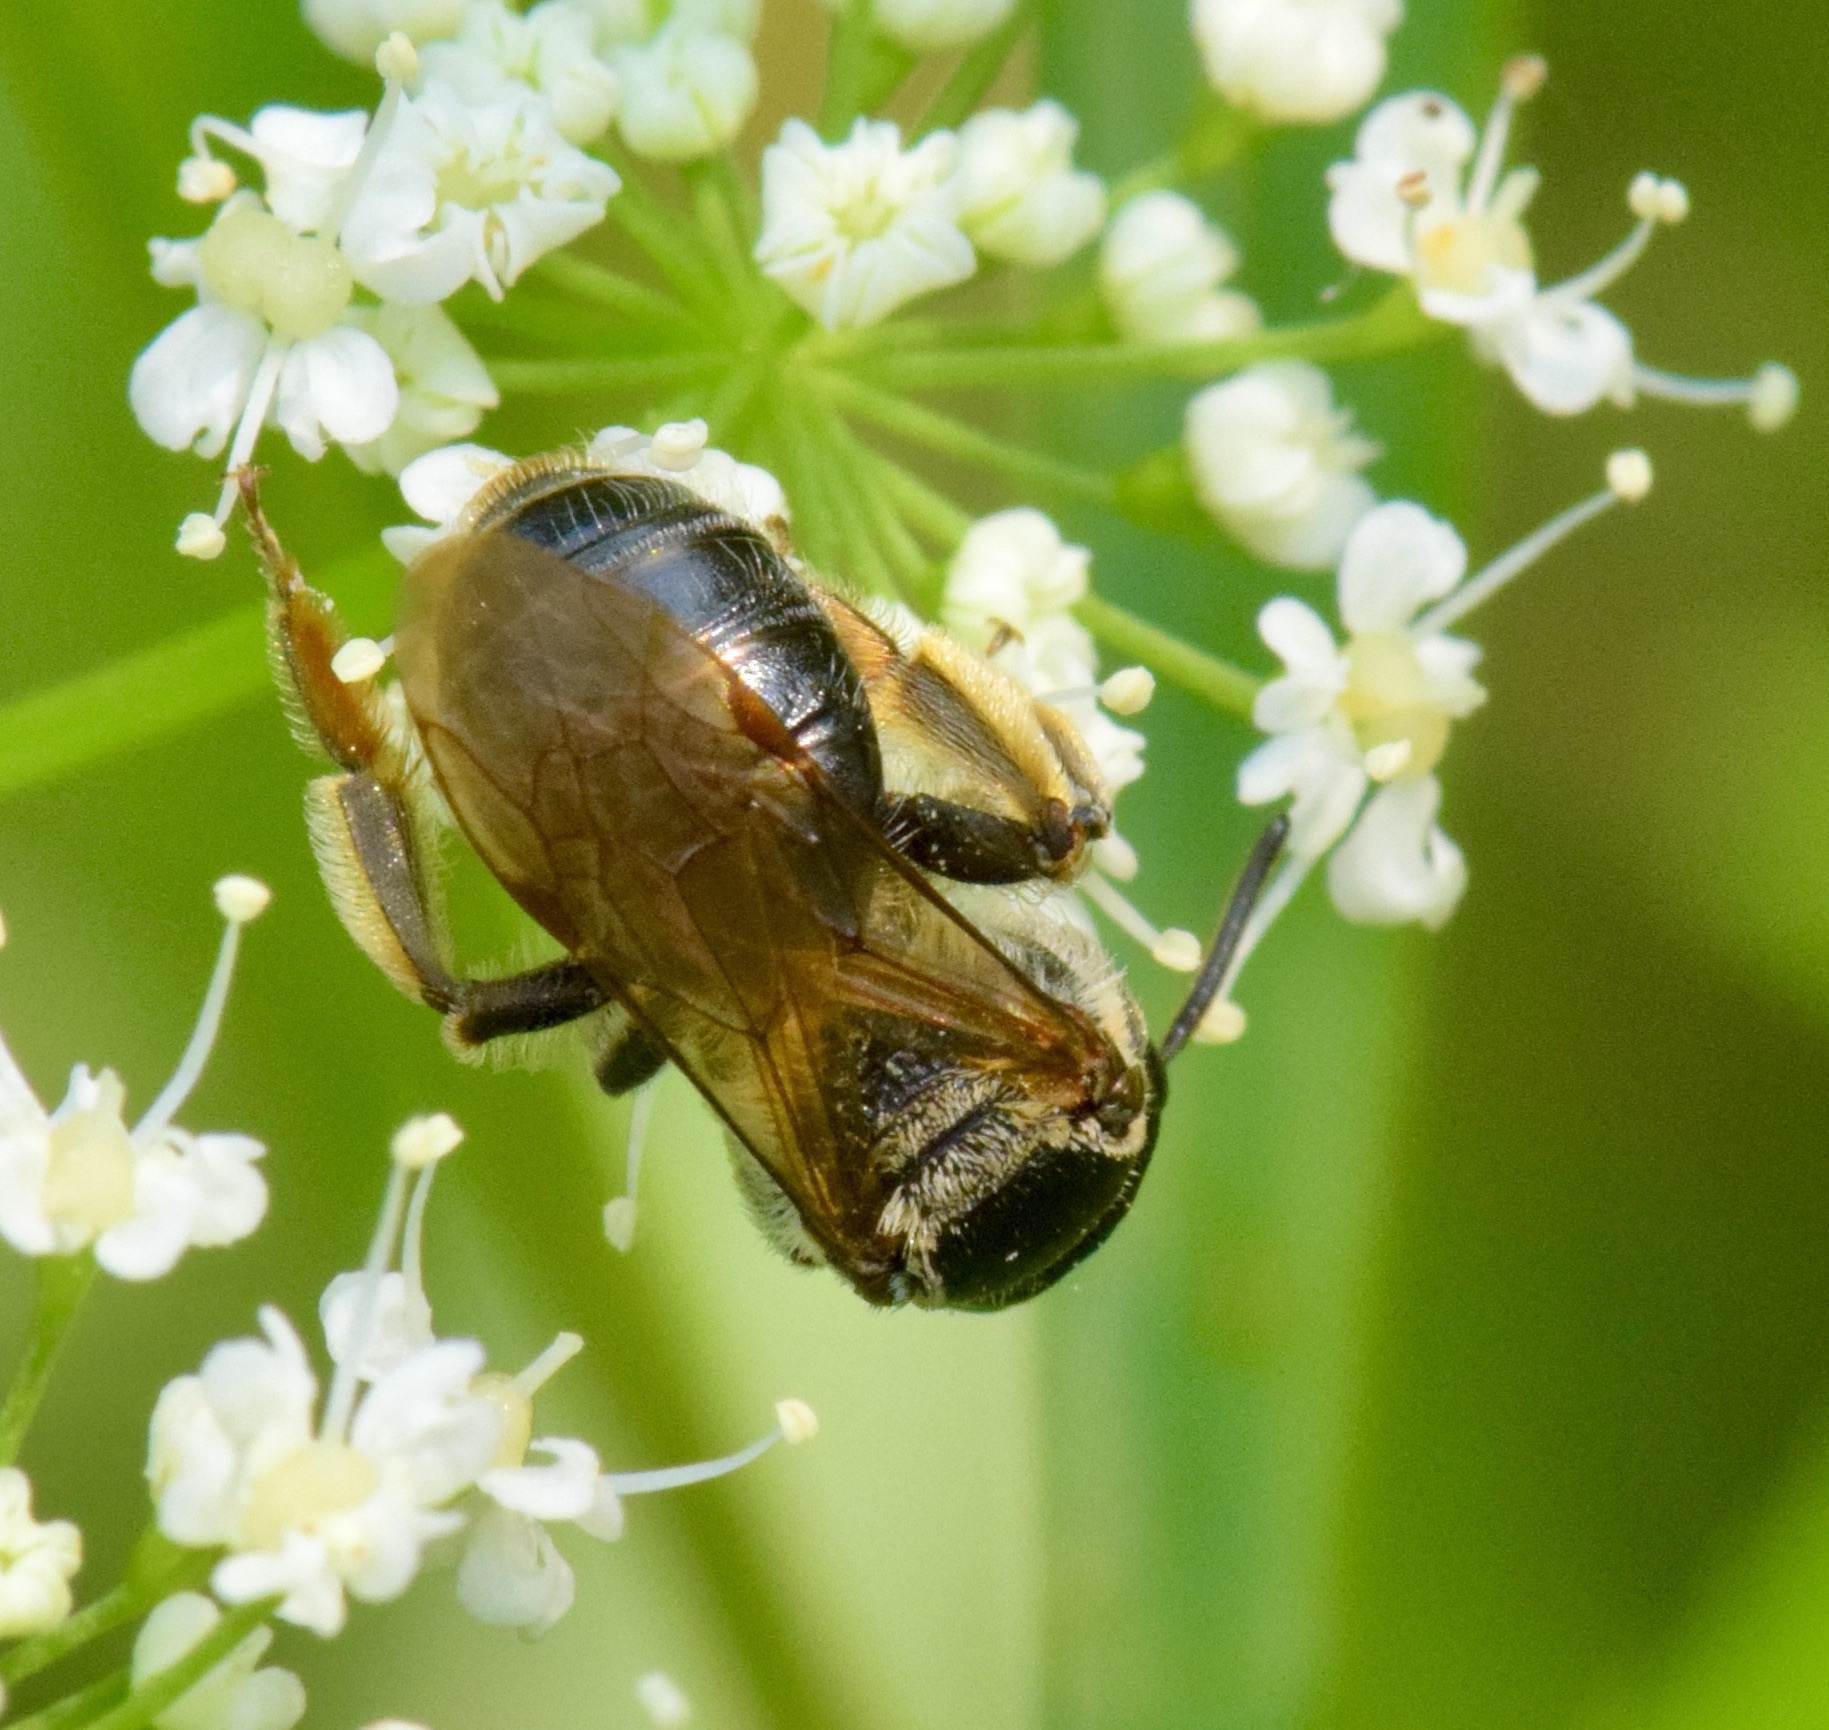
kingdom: Animalia
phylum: Arthropoda
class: Insecta
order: Hymenoptera
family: Andrenidae
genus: Andrena
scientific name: Andrena nuda
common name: Nude mining bee
